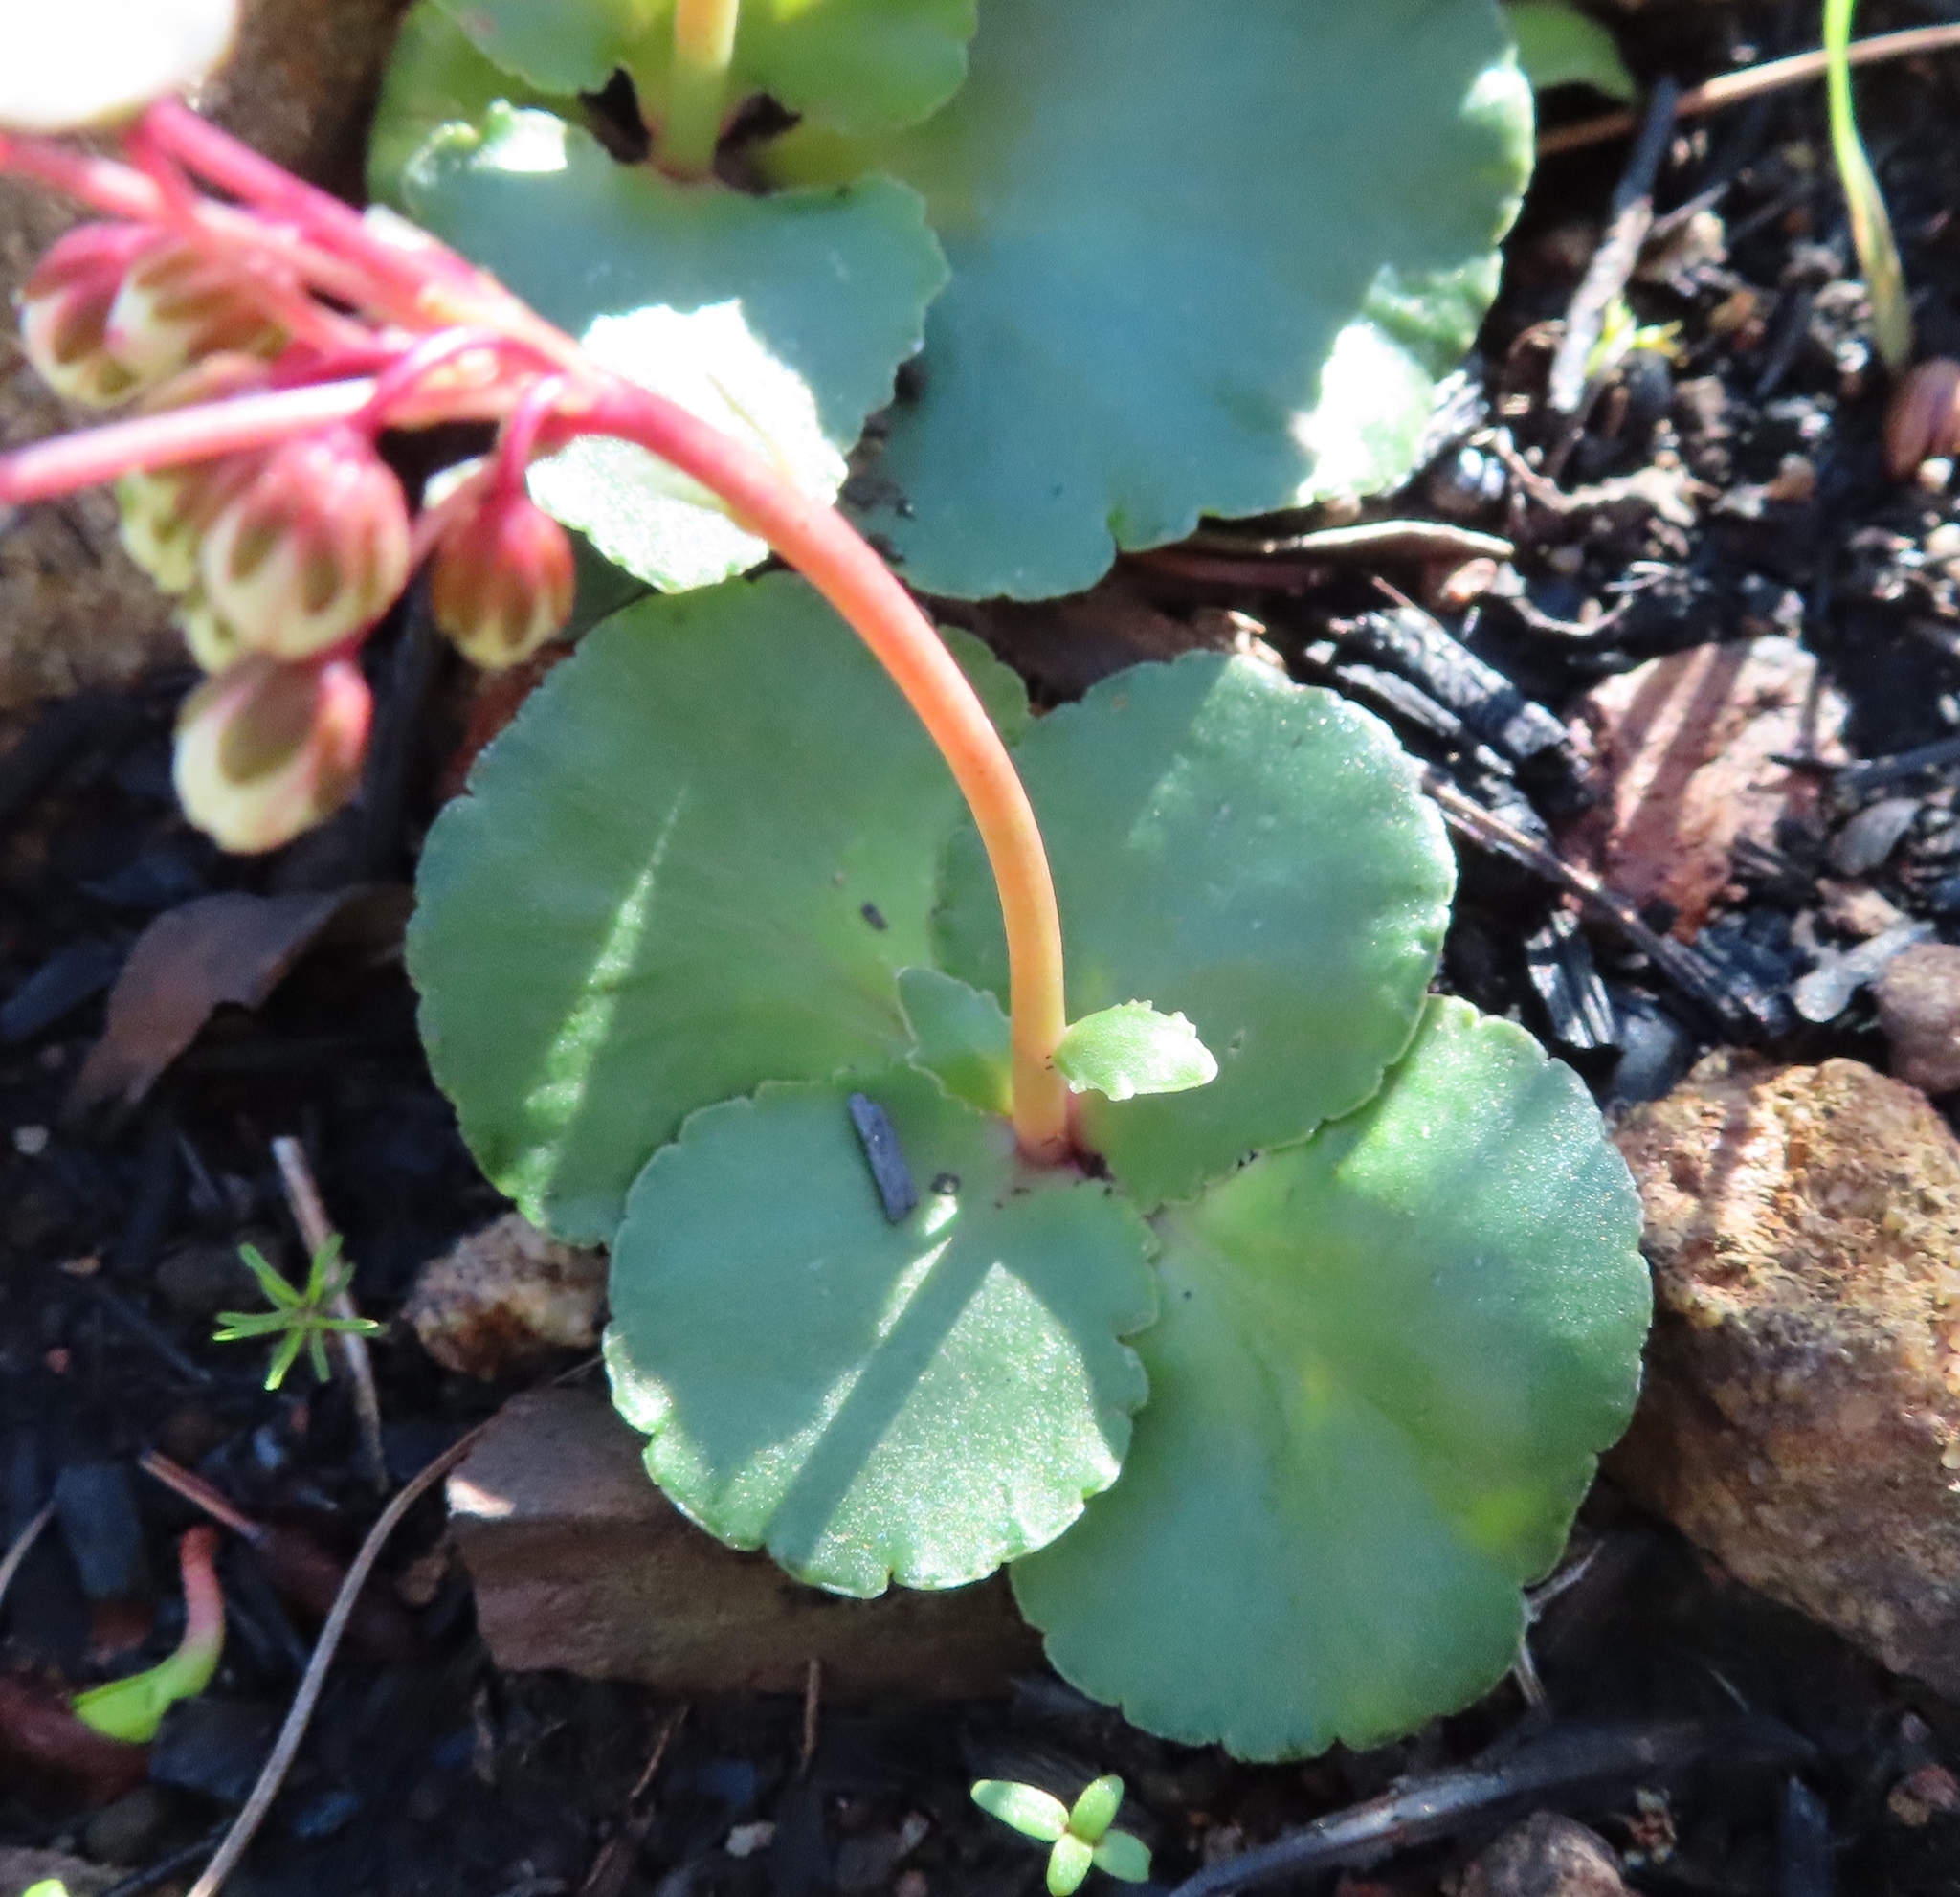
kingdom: Plantae
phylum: Tracheophyta
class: Magnoliopsida
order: Saxifragales
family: Crassulaceae
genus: Crassula
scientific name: Crassula capensis
